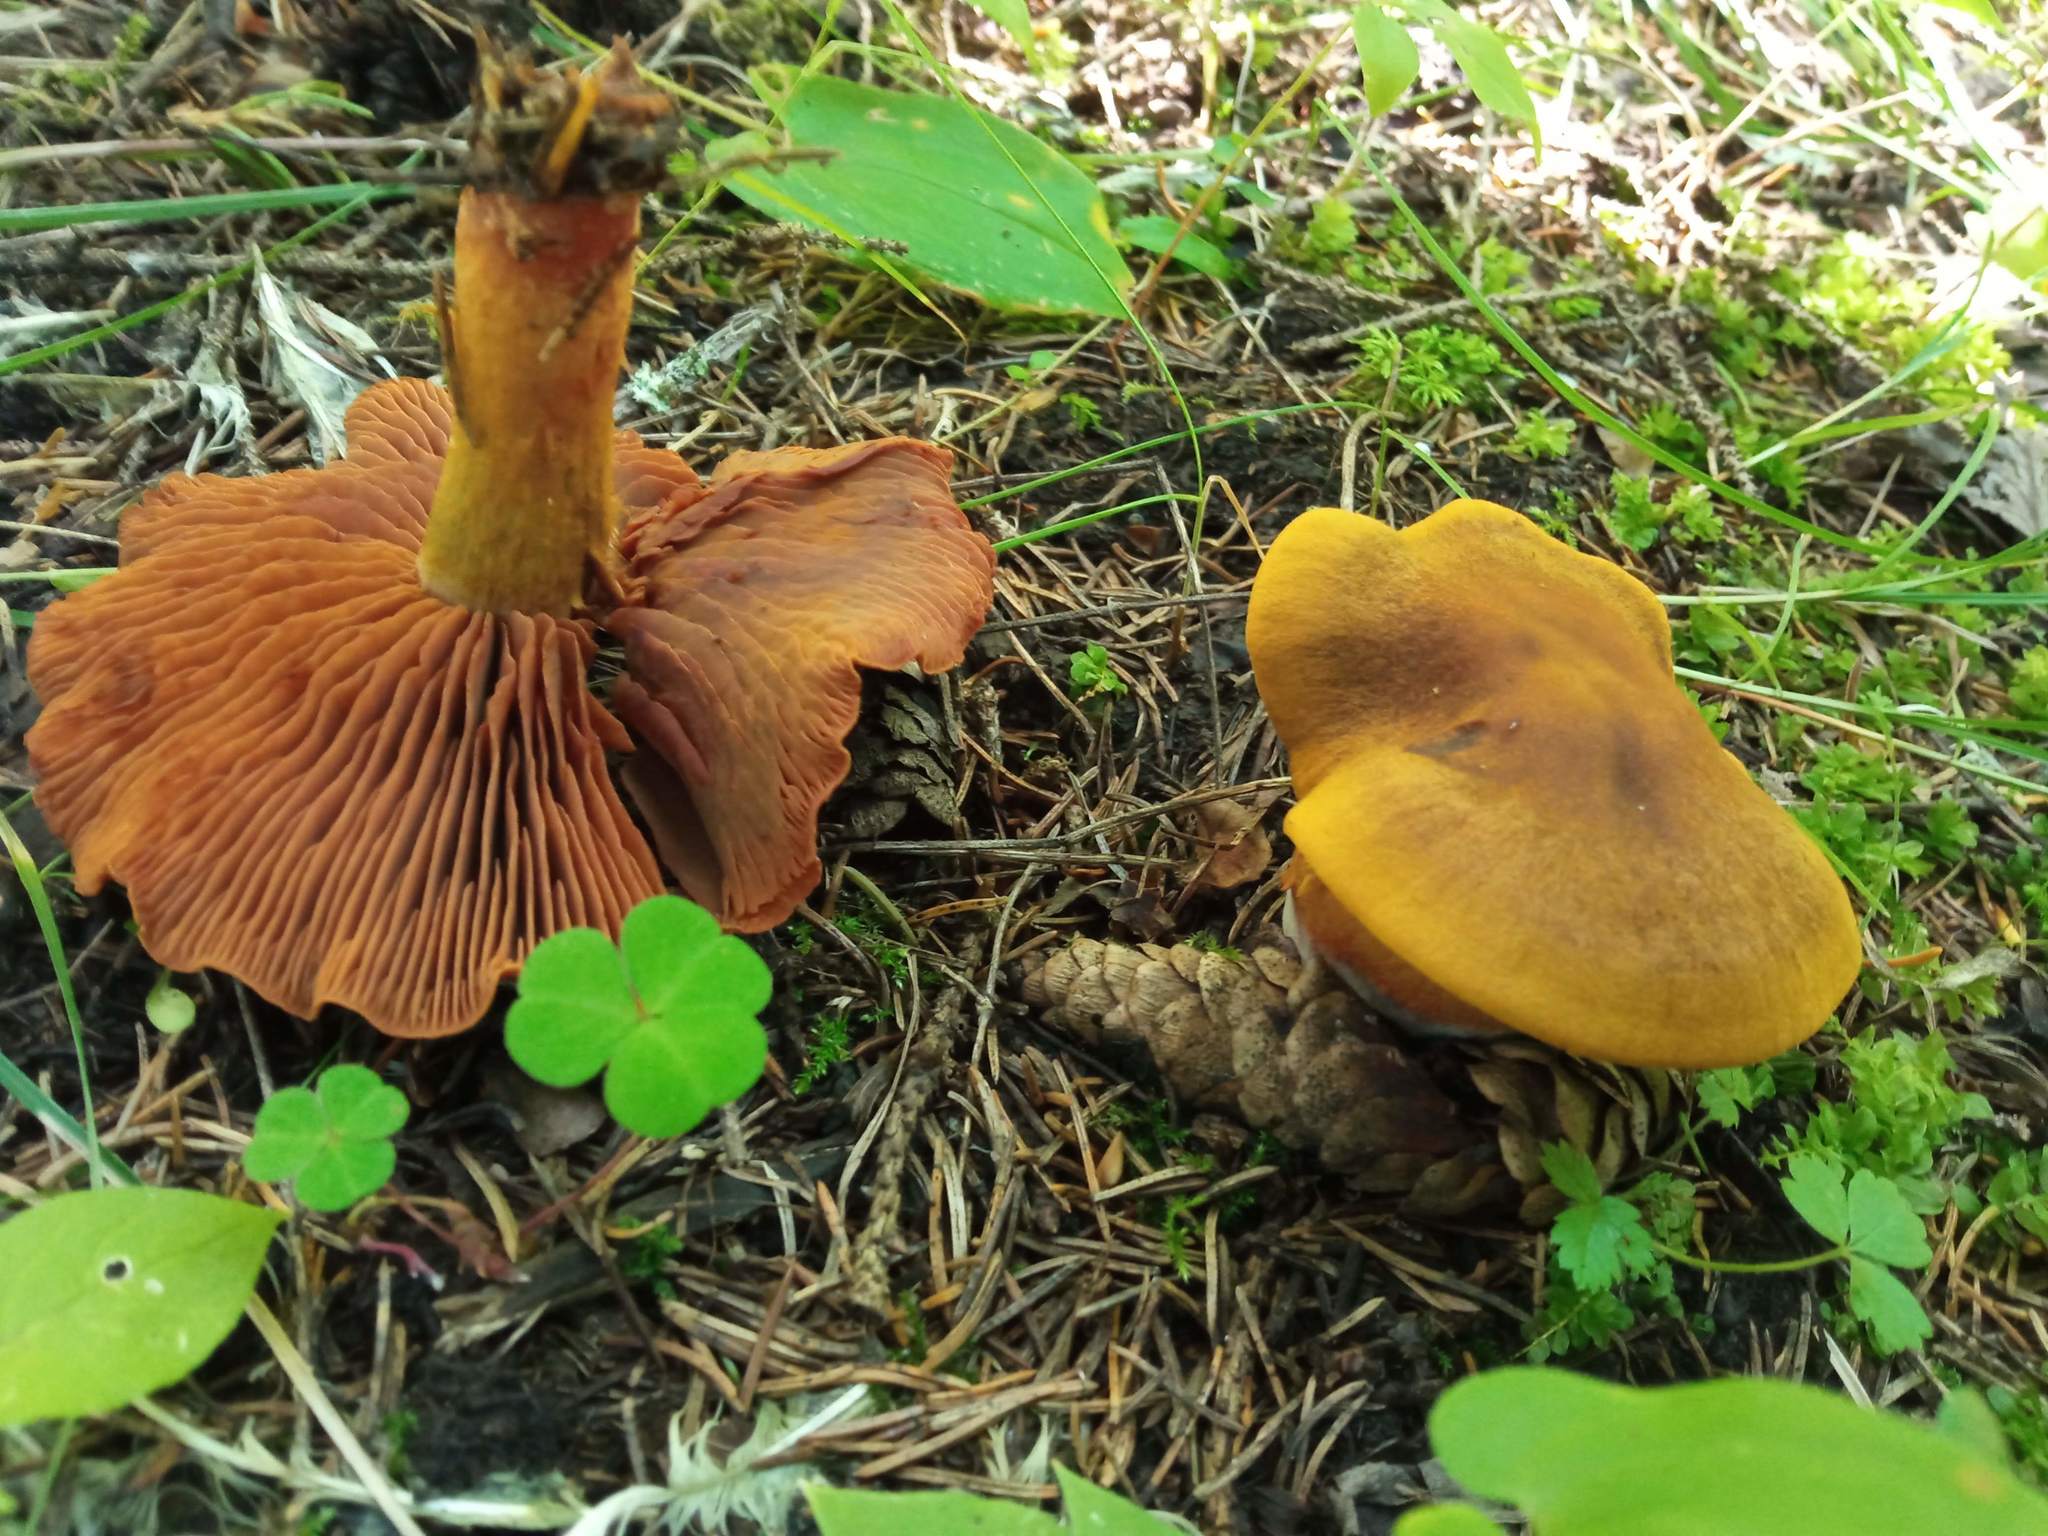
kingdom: Fungi
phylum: Basidiomycota
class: Agaricomycetes
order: Agaricales
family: Cortinariaceae
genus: Cortinarius
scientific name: Cortinarius semisanguineus
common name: Surprise webcap
